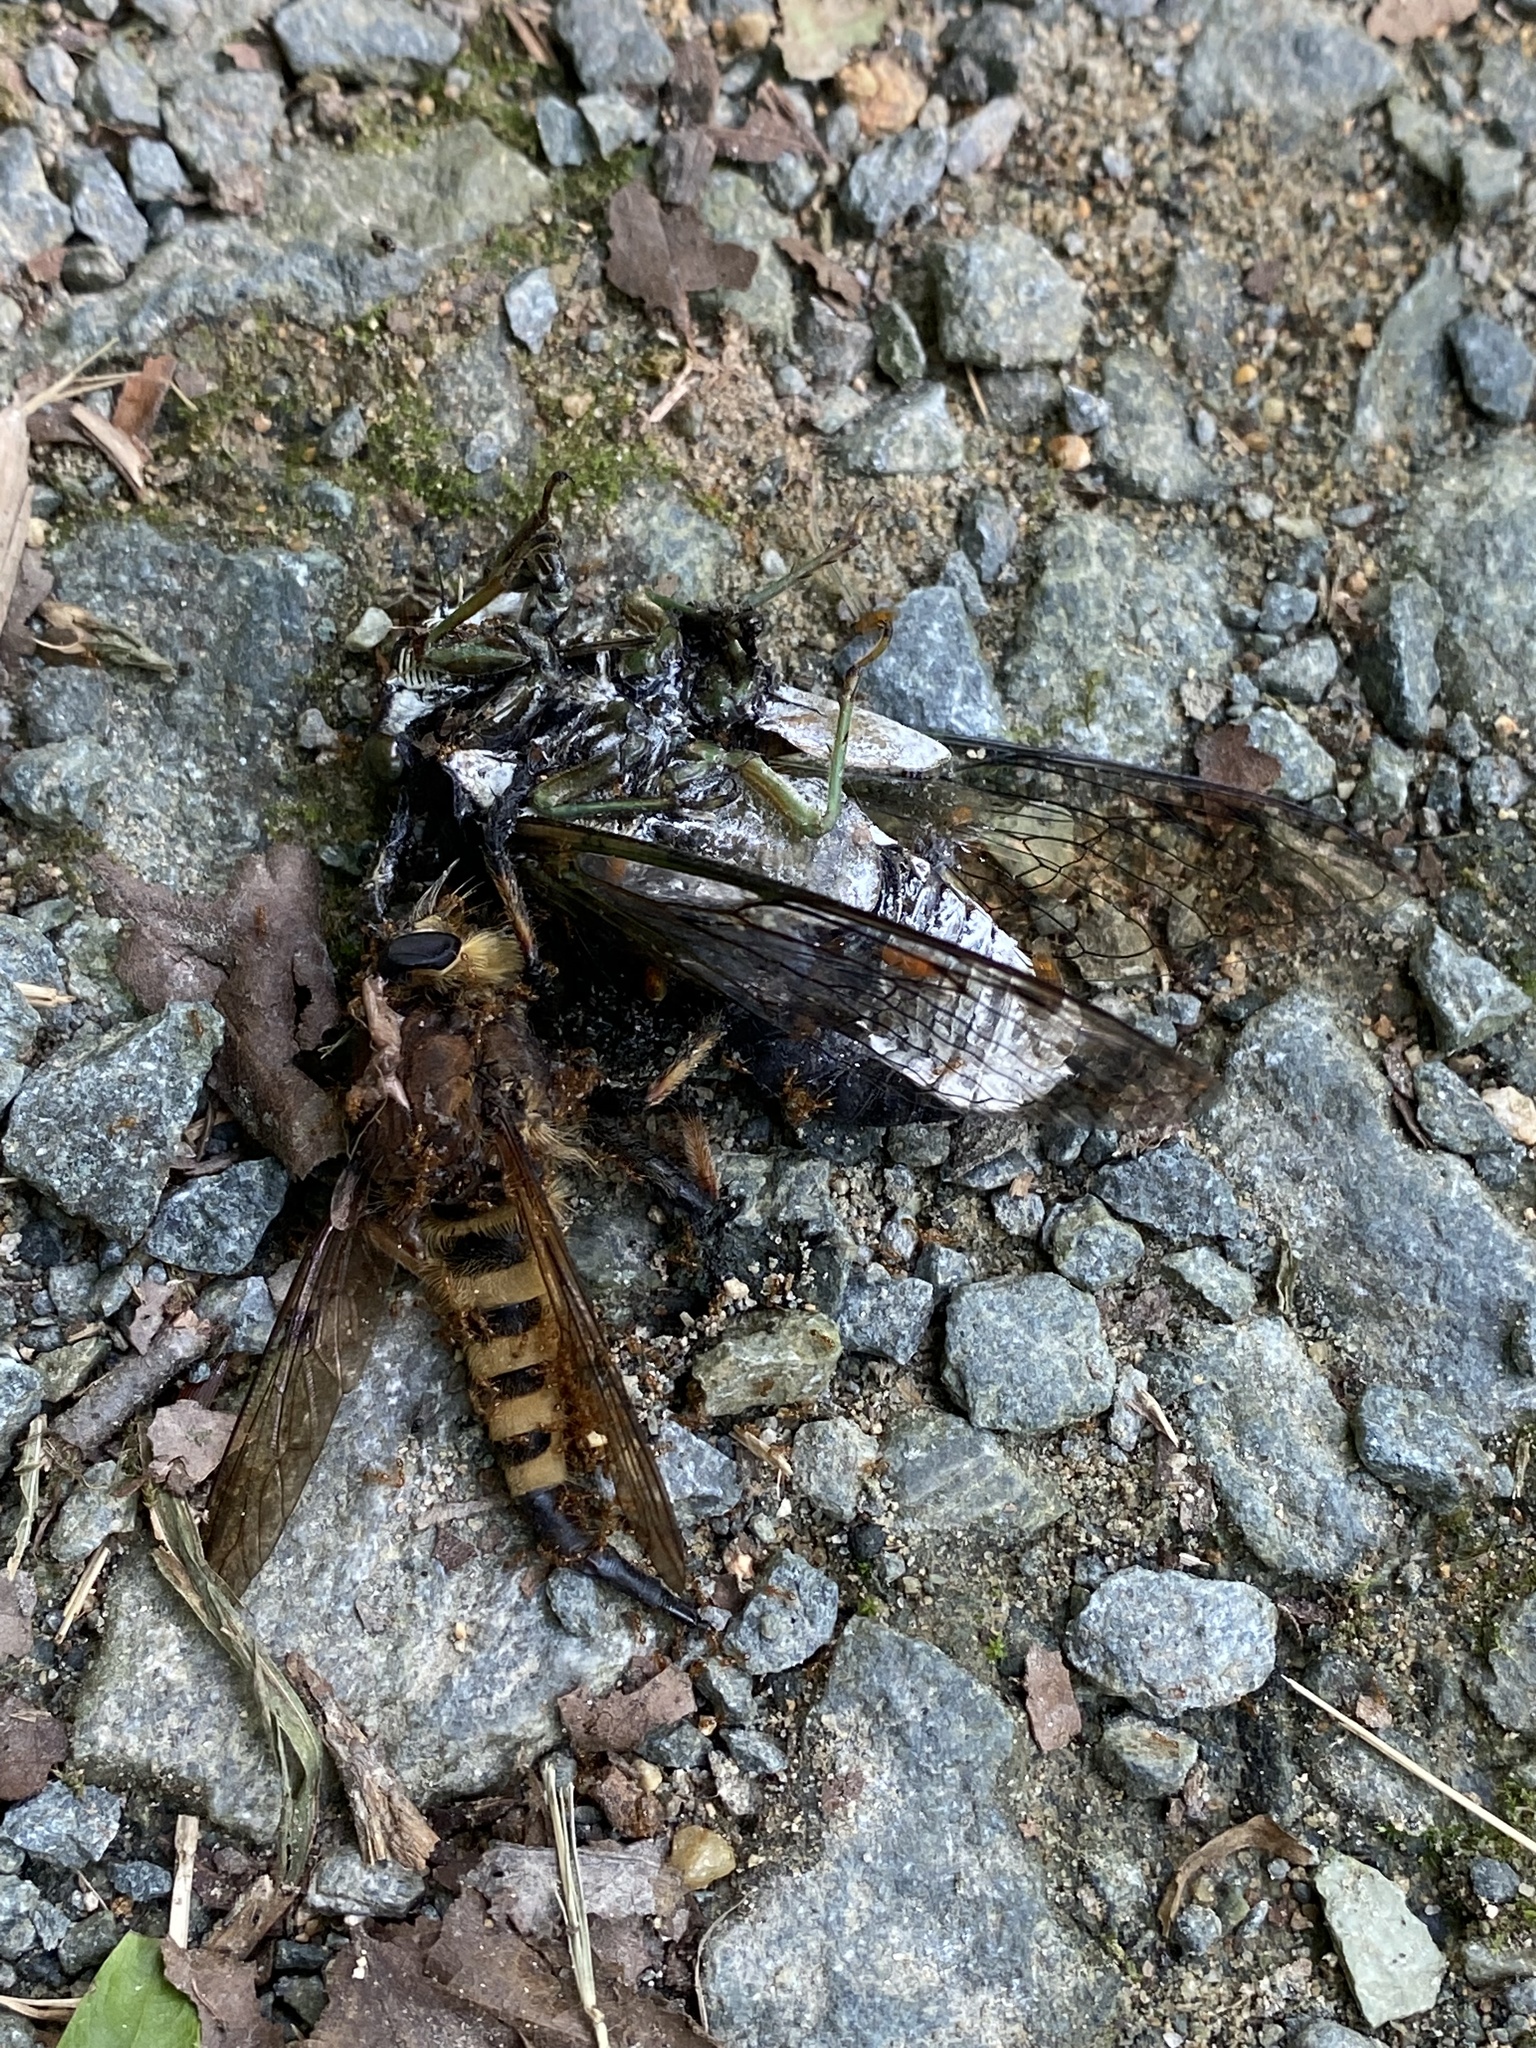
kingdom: Animalia
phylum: Arthropoda
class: Insecta
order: Diptera
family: Asilidae
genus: Promachus
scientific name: Promachus rufipes
